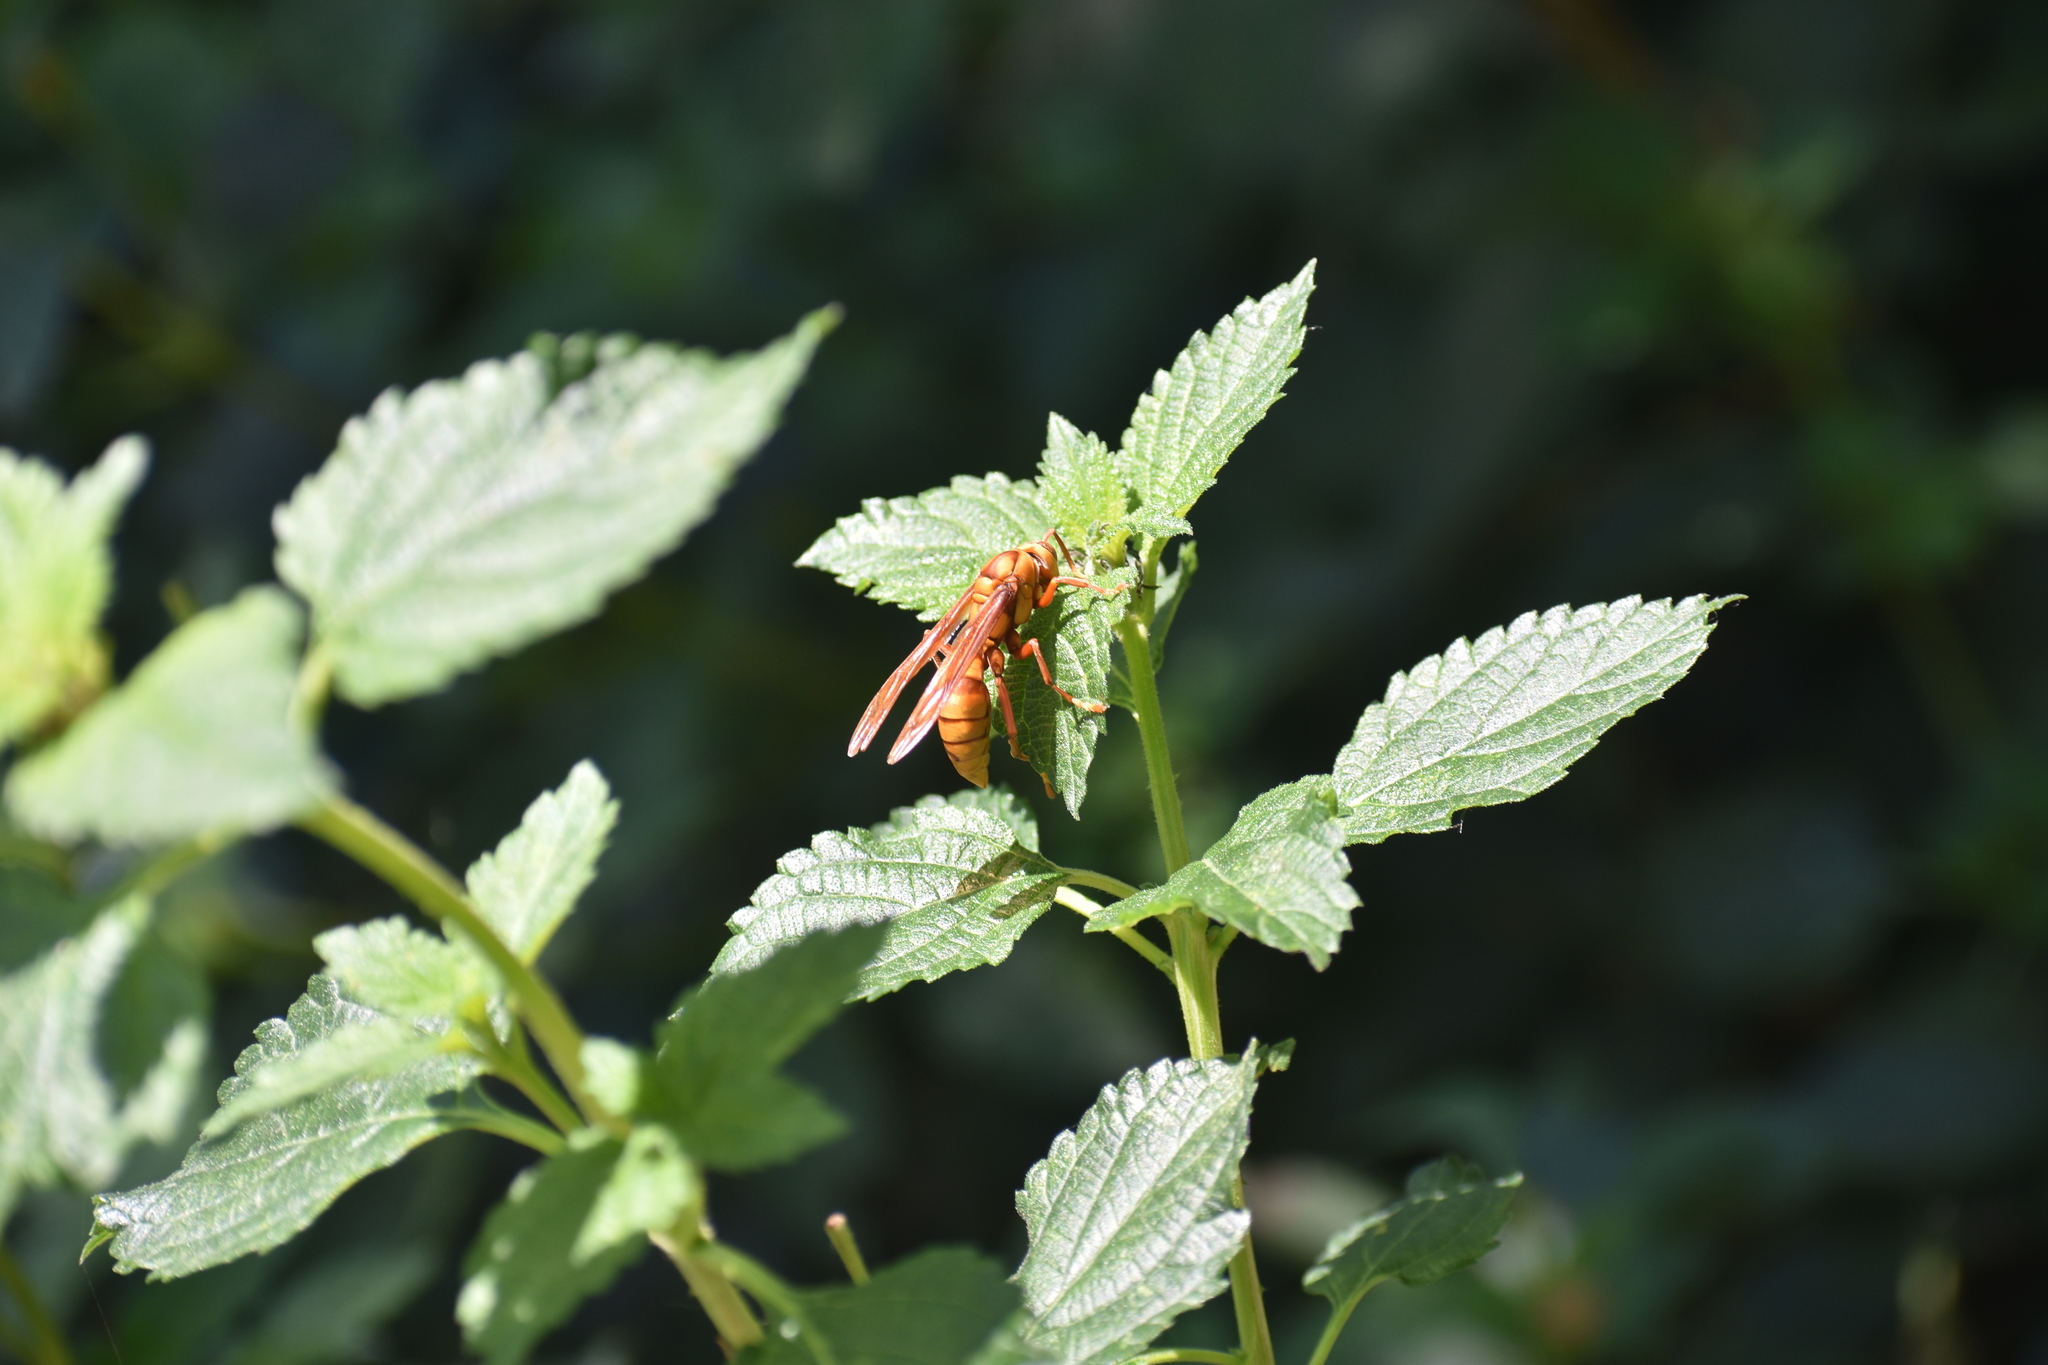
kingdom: Animalia
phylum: Arthropoda
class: Insecta
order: Hymenoptera
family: Eumenidae
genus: Polistes
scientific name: Polistes carnifex
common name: Paper wasp
